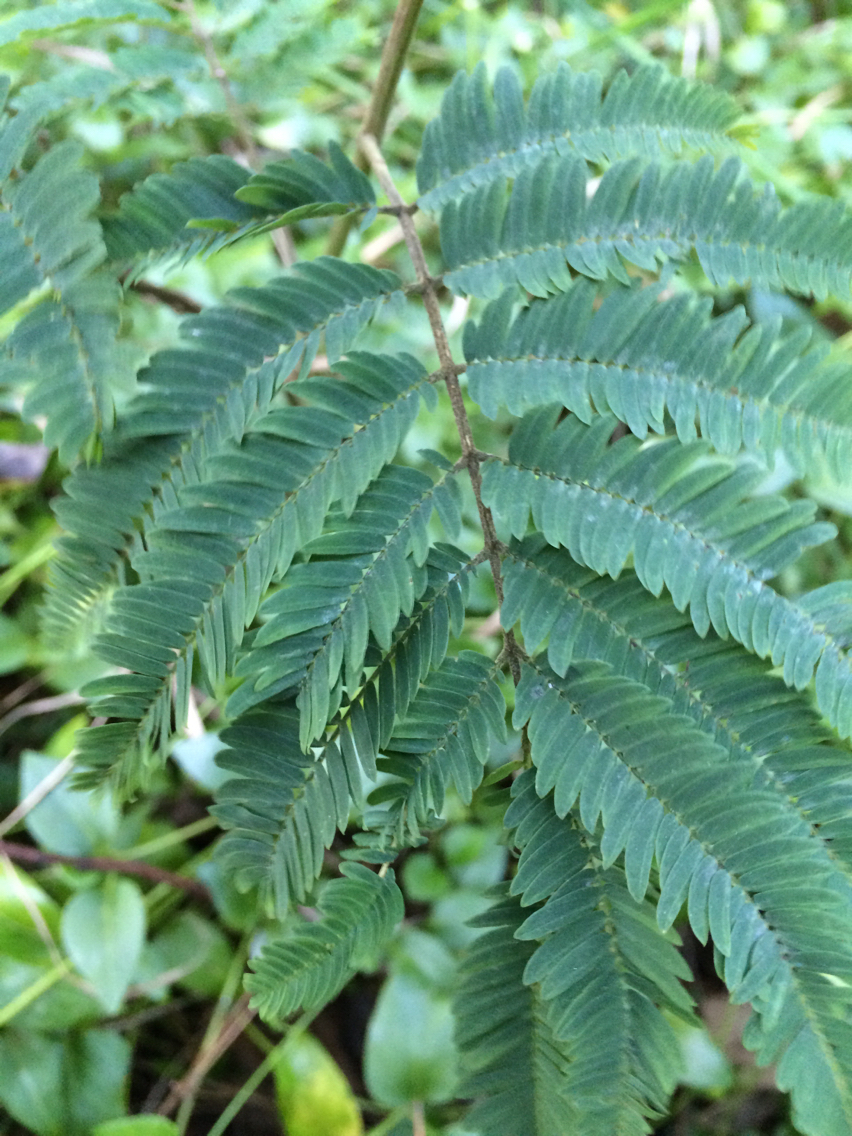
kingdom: Plantae
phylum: Tracheophyta
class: Magnoliopsida
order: Fabales
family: Fabaceae
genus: Paraserianthes
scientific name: Paraserianthes lophantha
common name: Plume albizia
